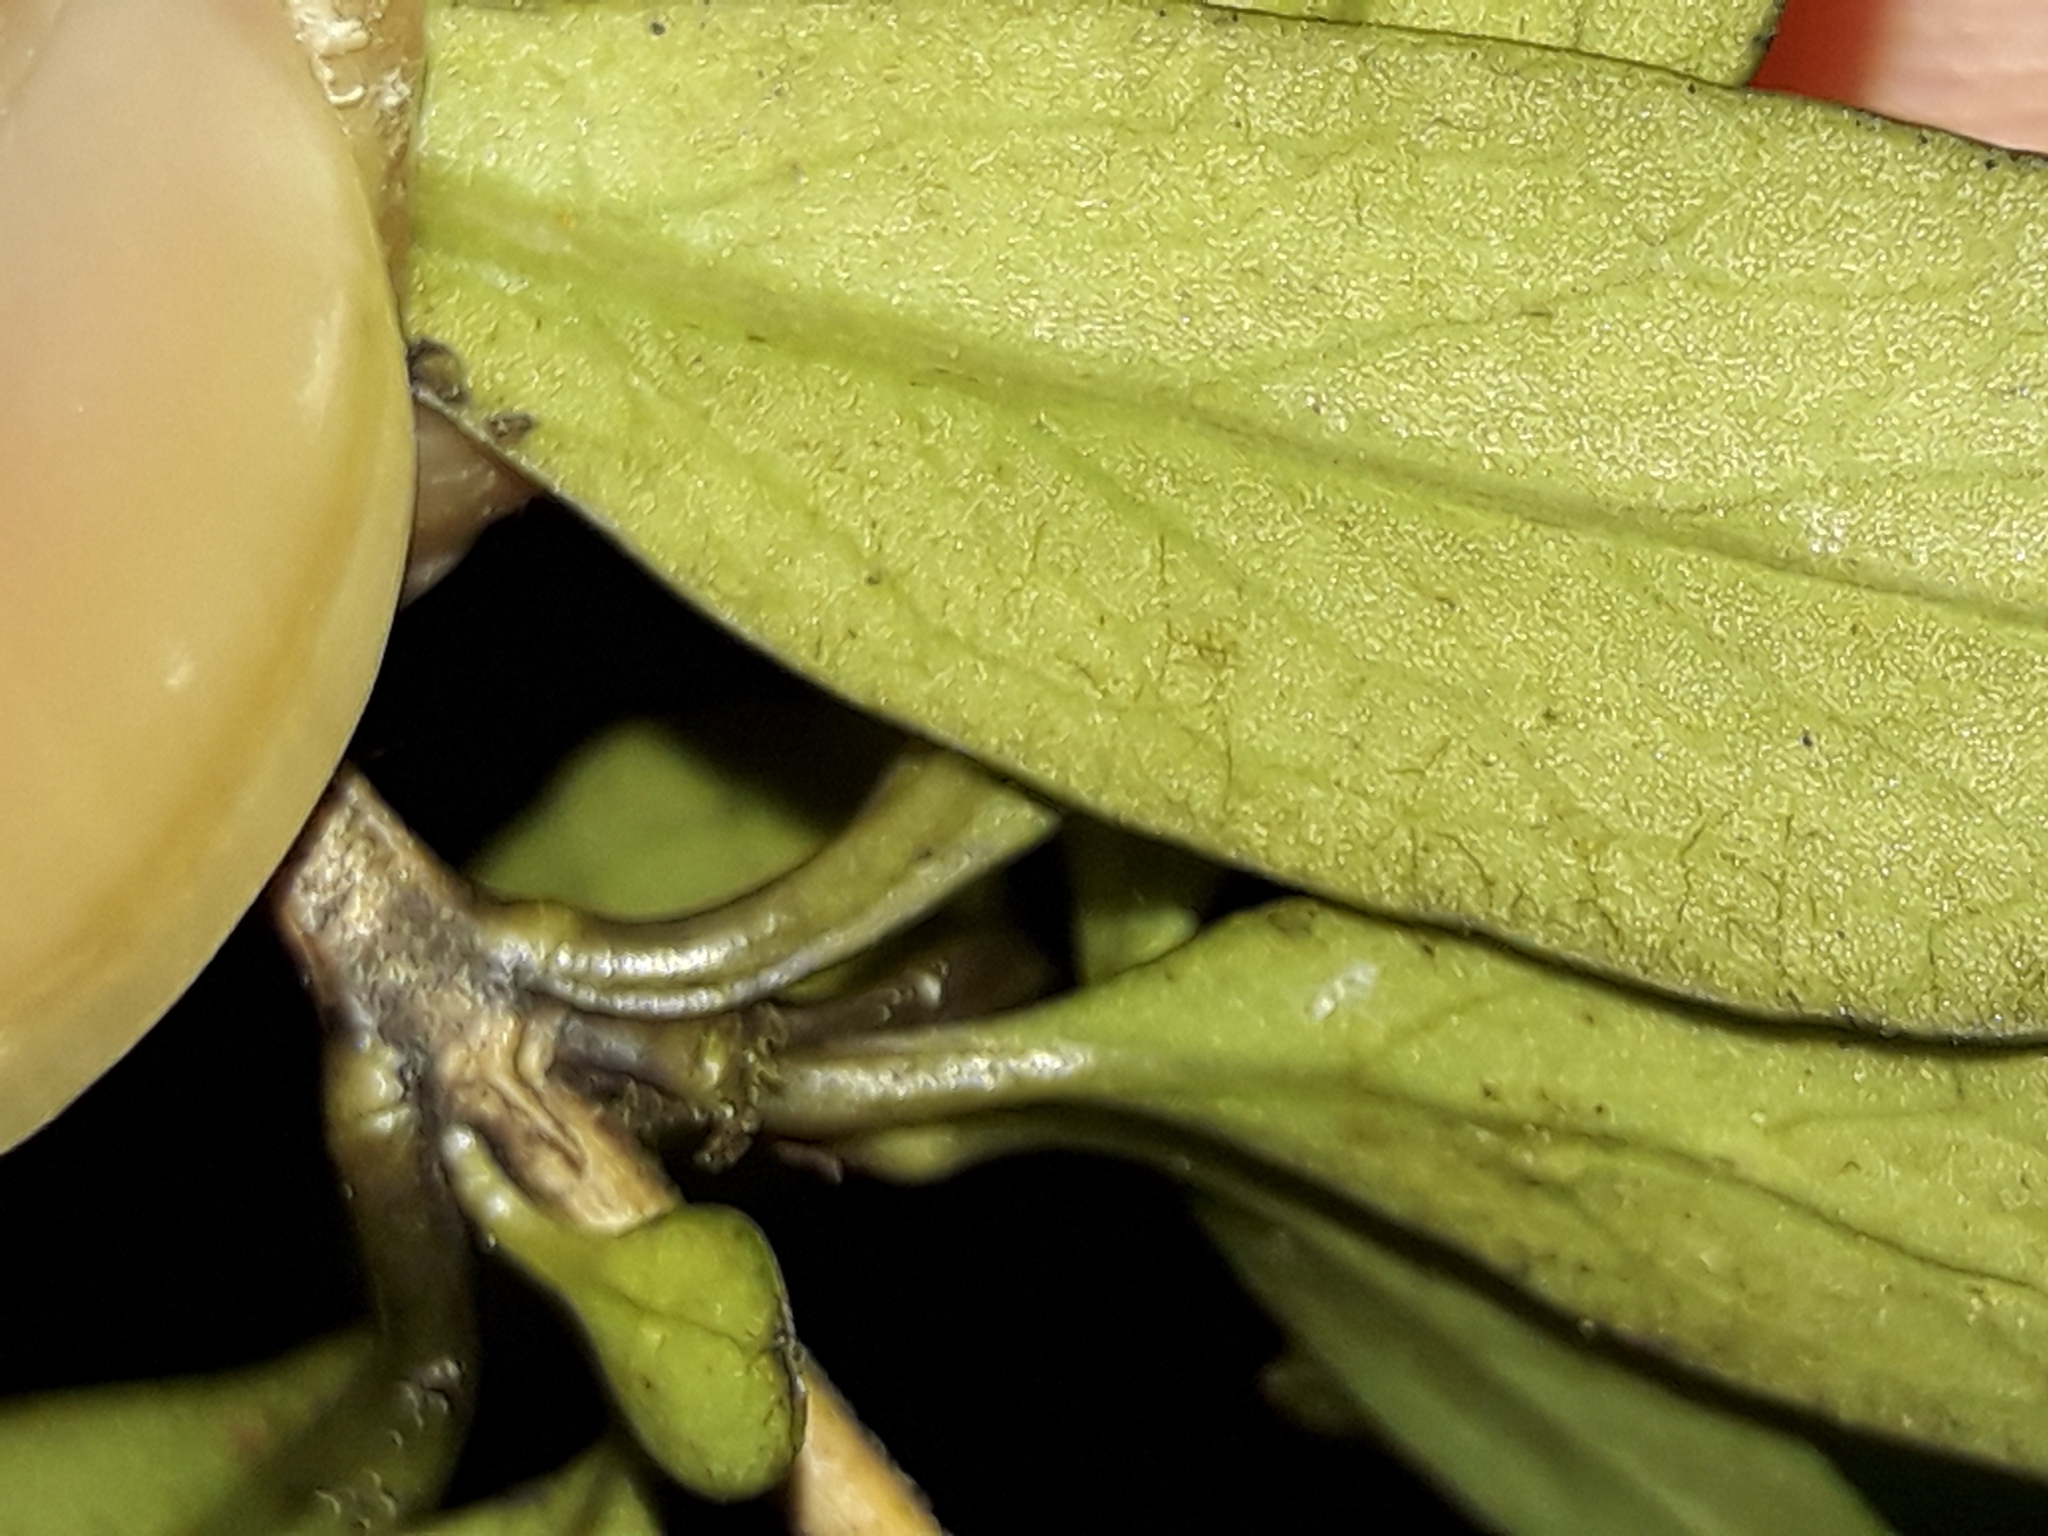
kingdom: Plantae
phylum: Tracheophyta
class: Magnoliopsida
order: Gentianales
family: Rubiaceae
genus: Coprosma
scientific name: Coprosma colensoi
